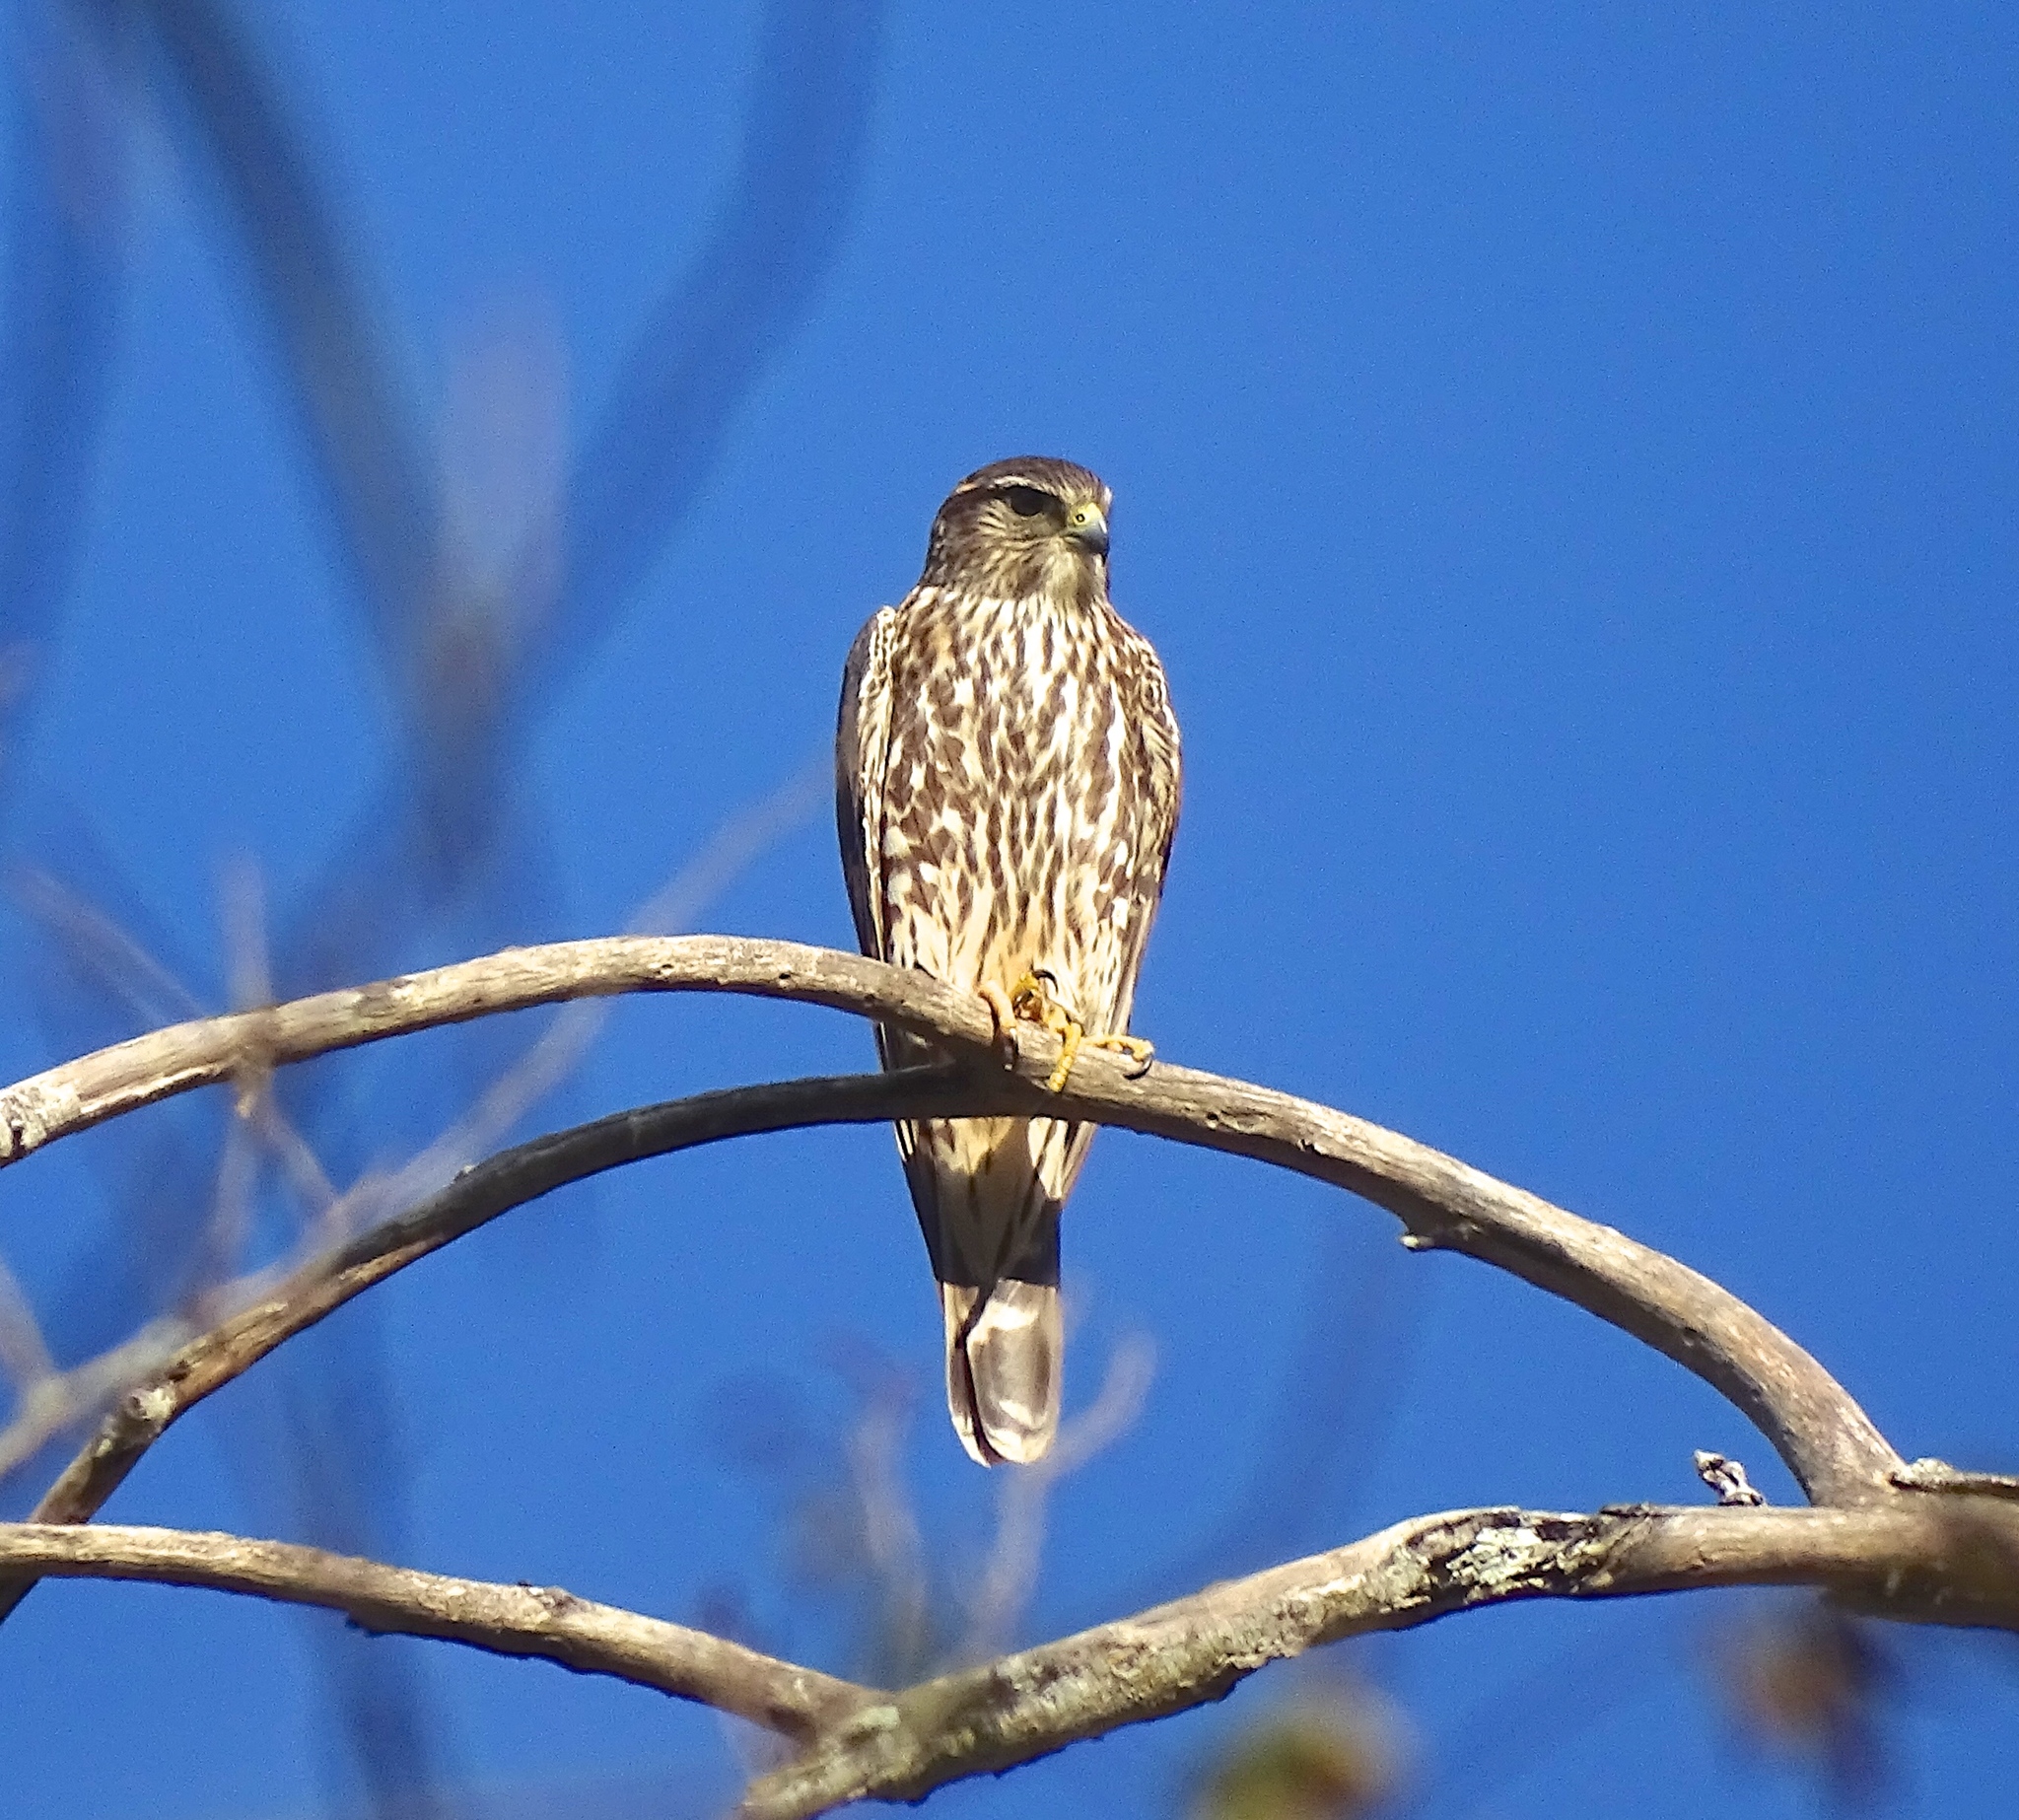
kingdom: Animalia
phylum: Chordata
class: Aves
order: Falconiformes
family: Falconidae
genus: Falco
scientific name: Falco columbarius
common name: Merlin
